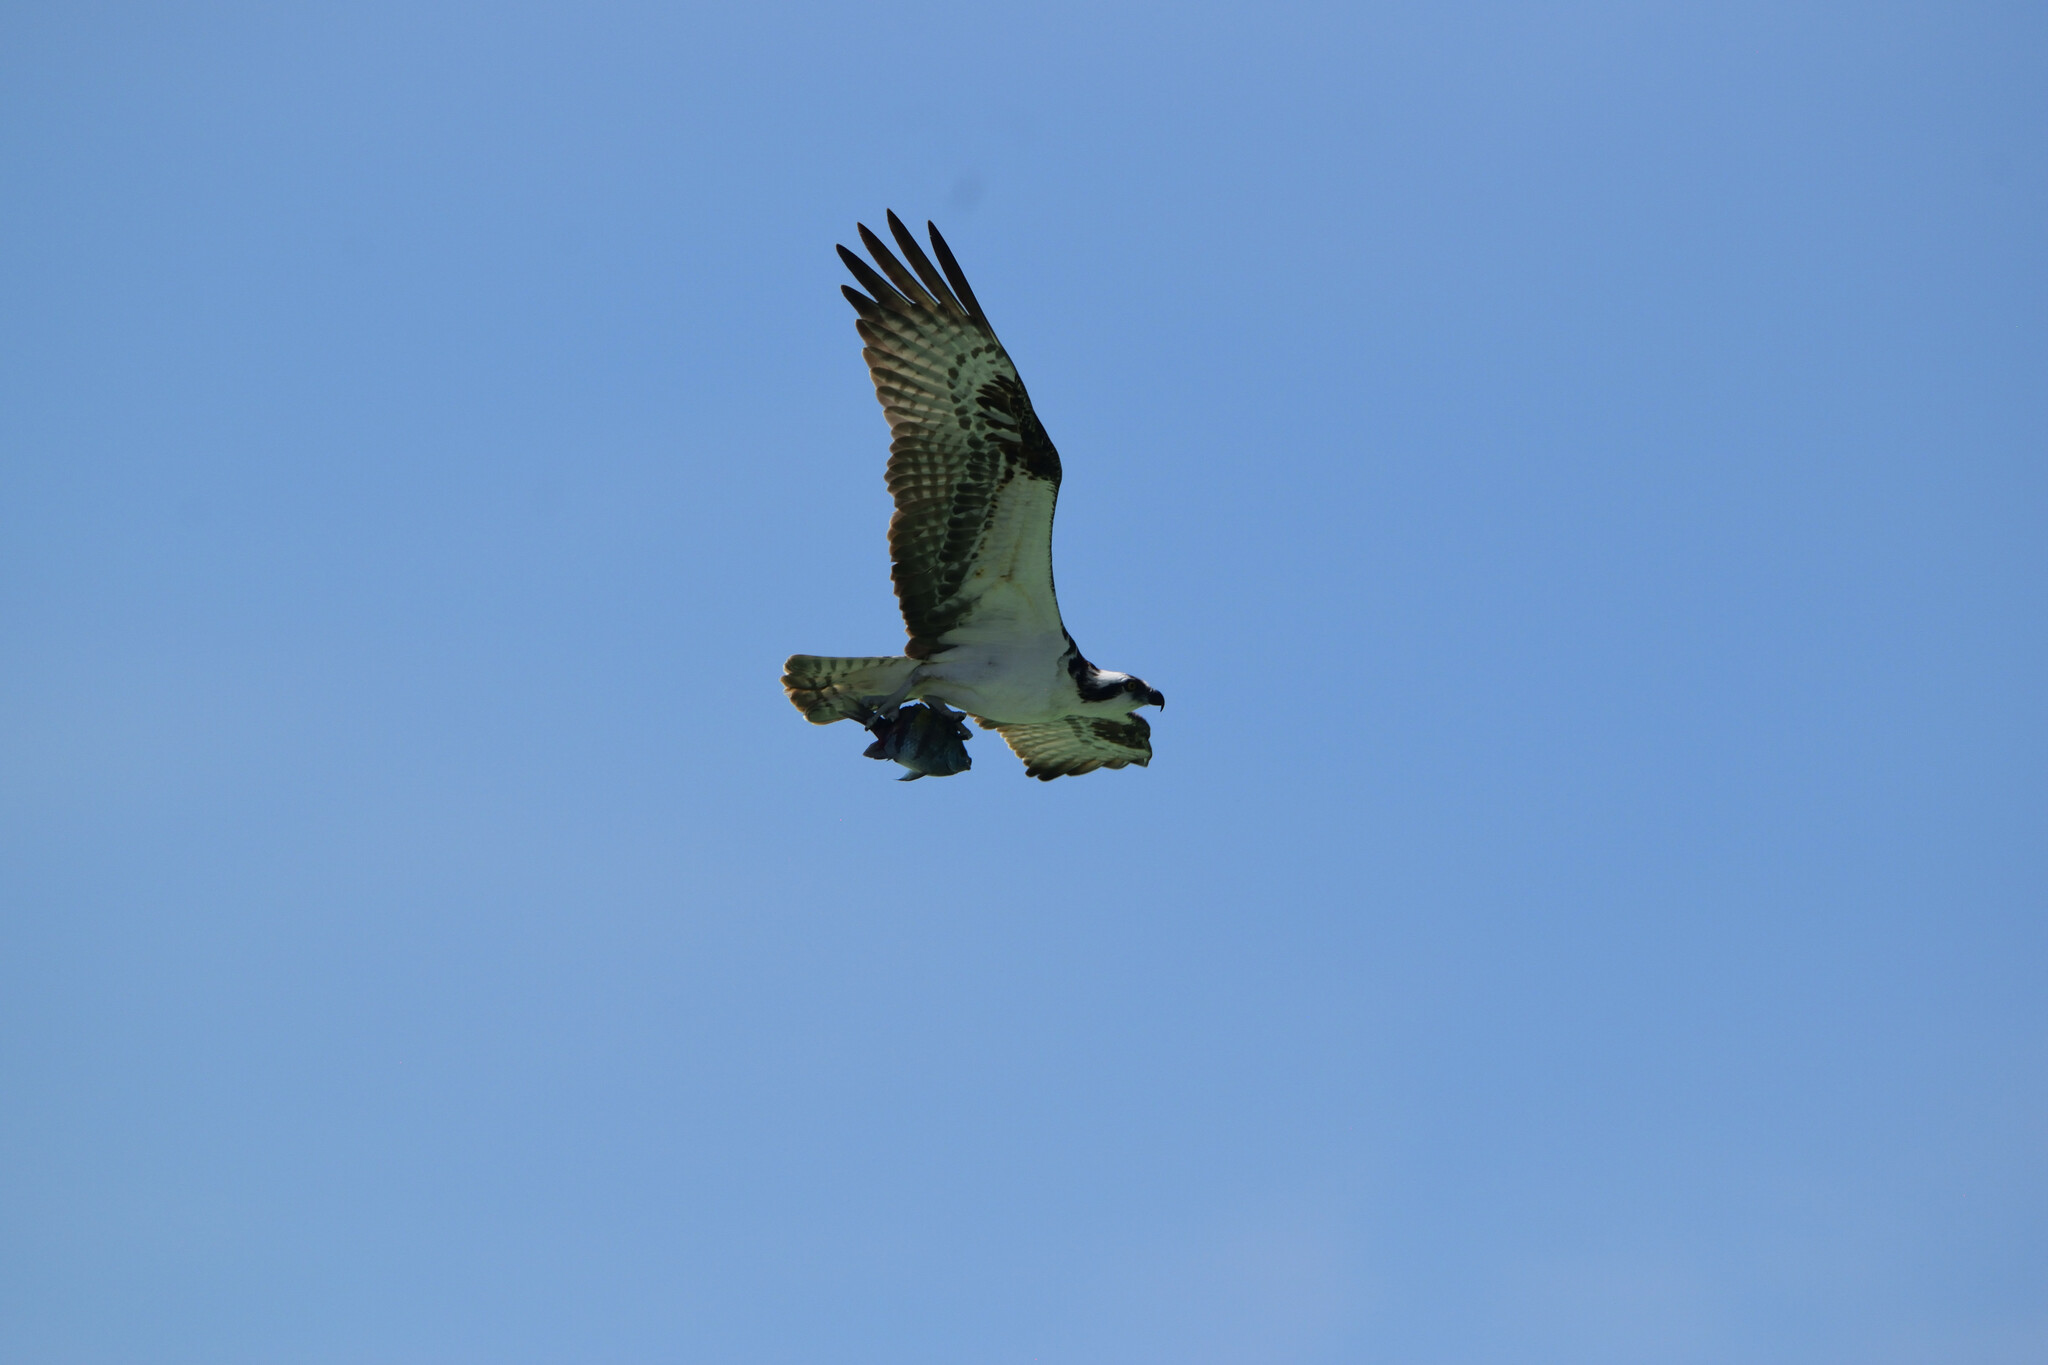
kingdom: Animalia
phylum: Chordata
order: Perciformes
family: Pomacentridae
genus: Abudefduf
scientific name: Abudefduf troschelii
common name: Panamic sergeant major
